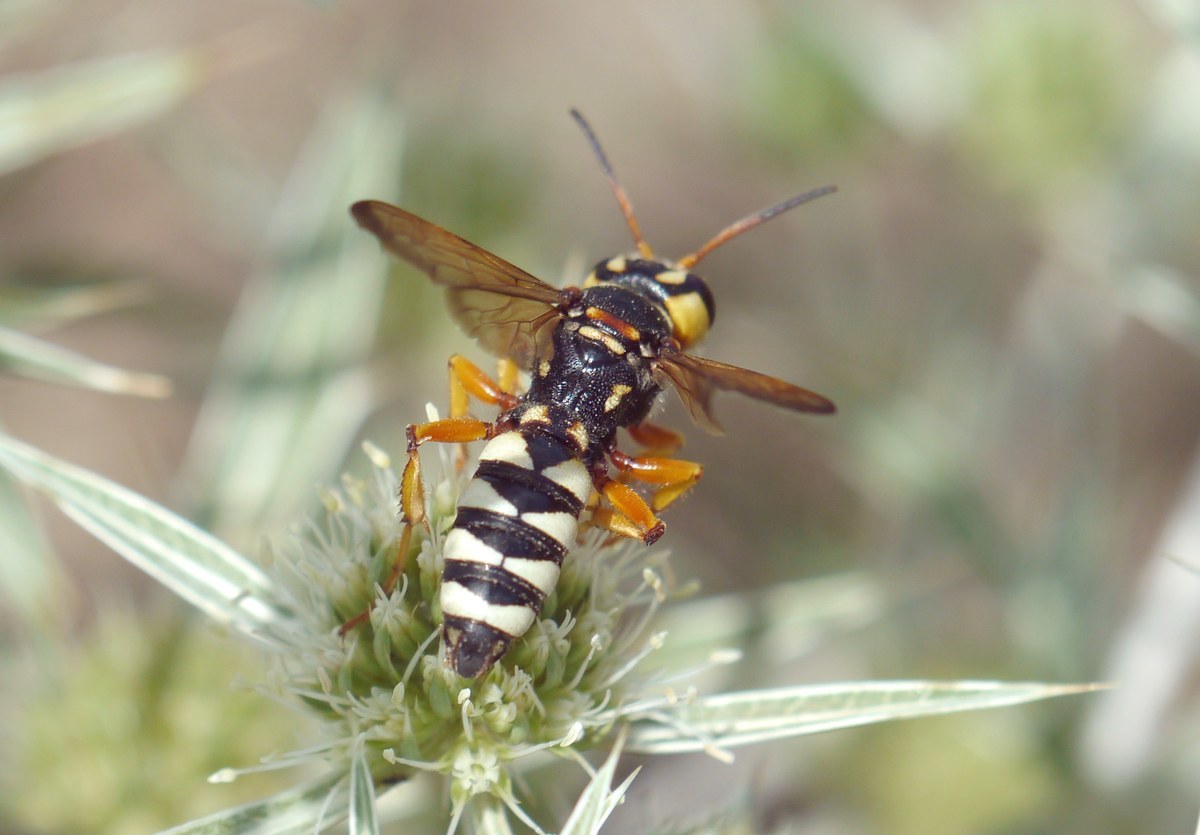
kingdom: Animalia
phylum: Arthropoda
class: Insecta
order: Hymenoptera
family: Crabronidae
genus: Cerceris
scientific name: Cerceris tuberculata
